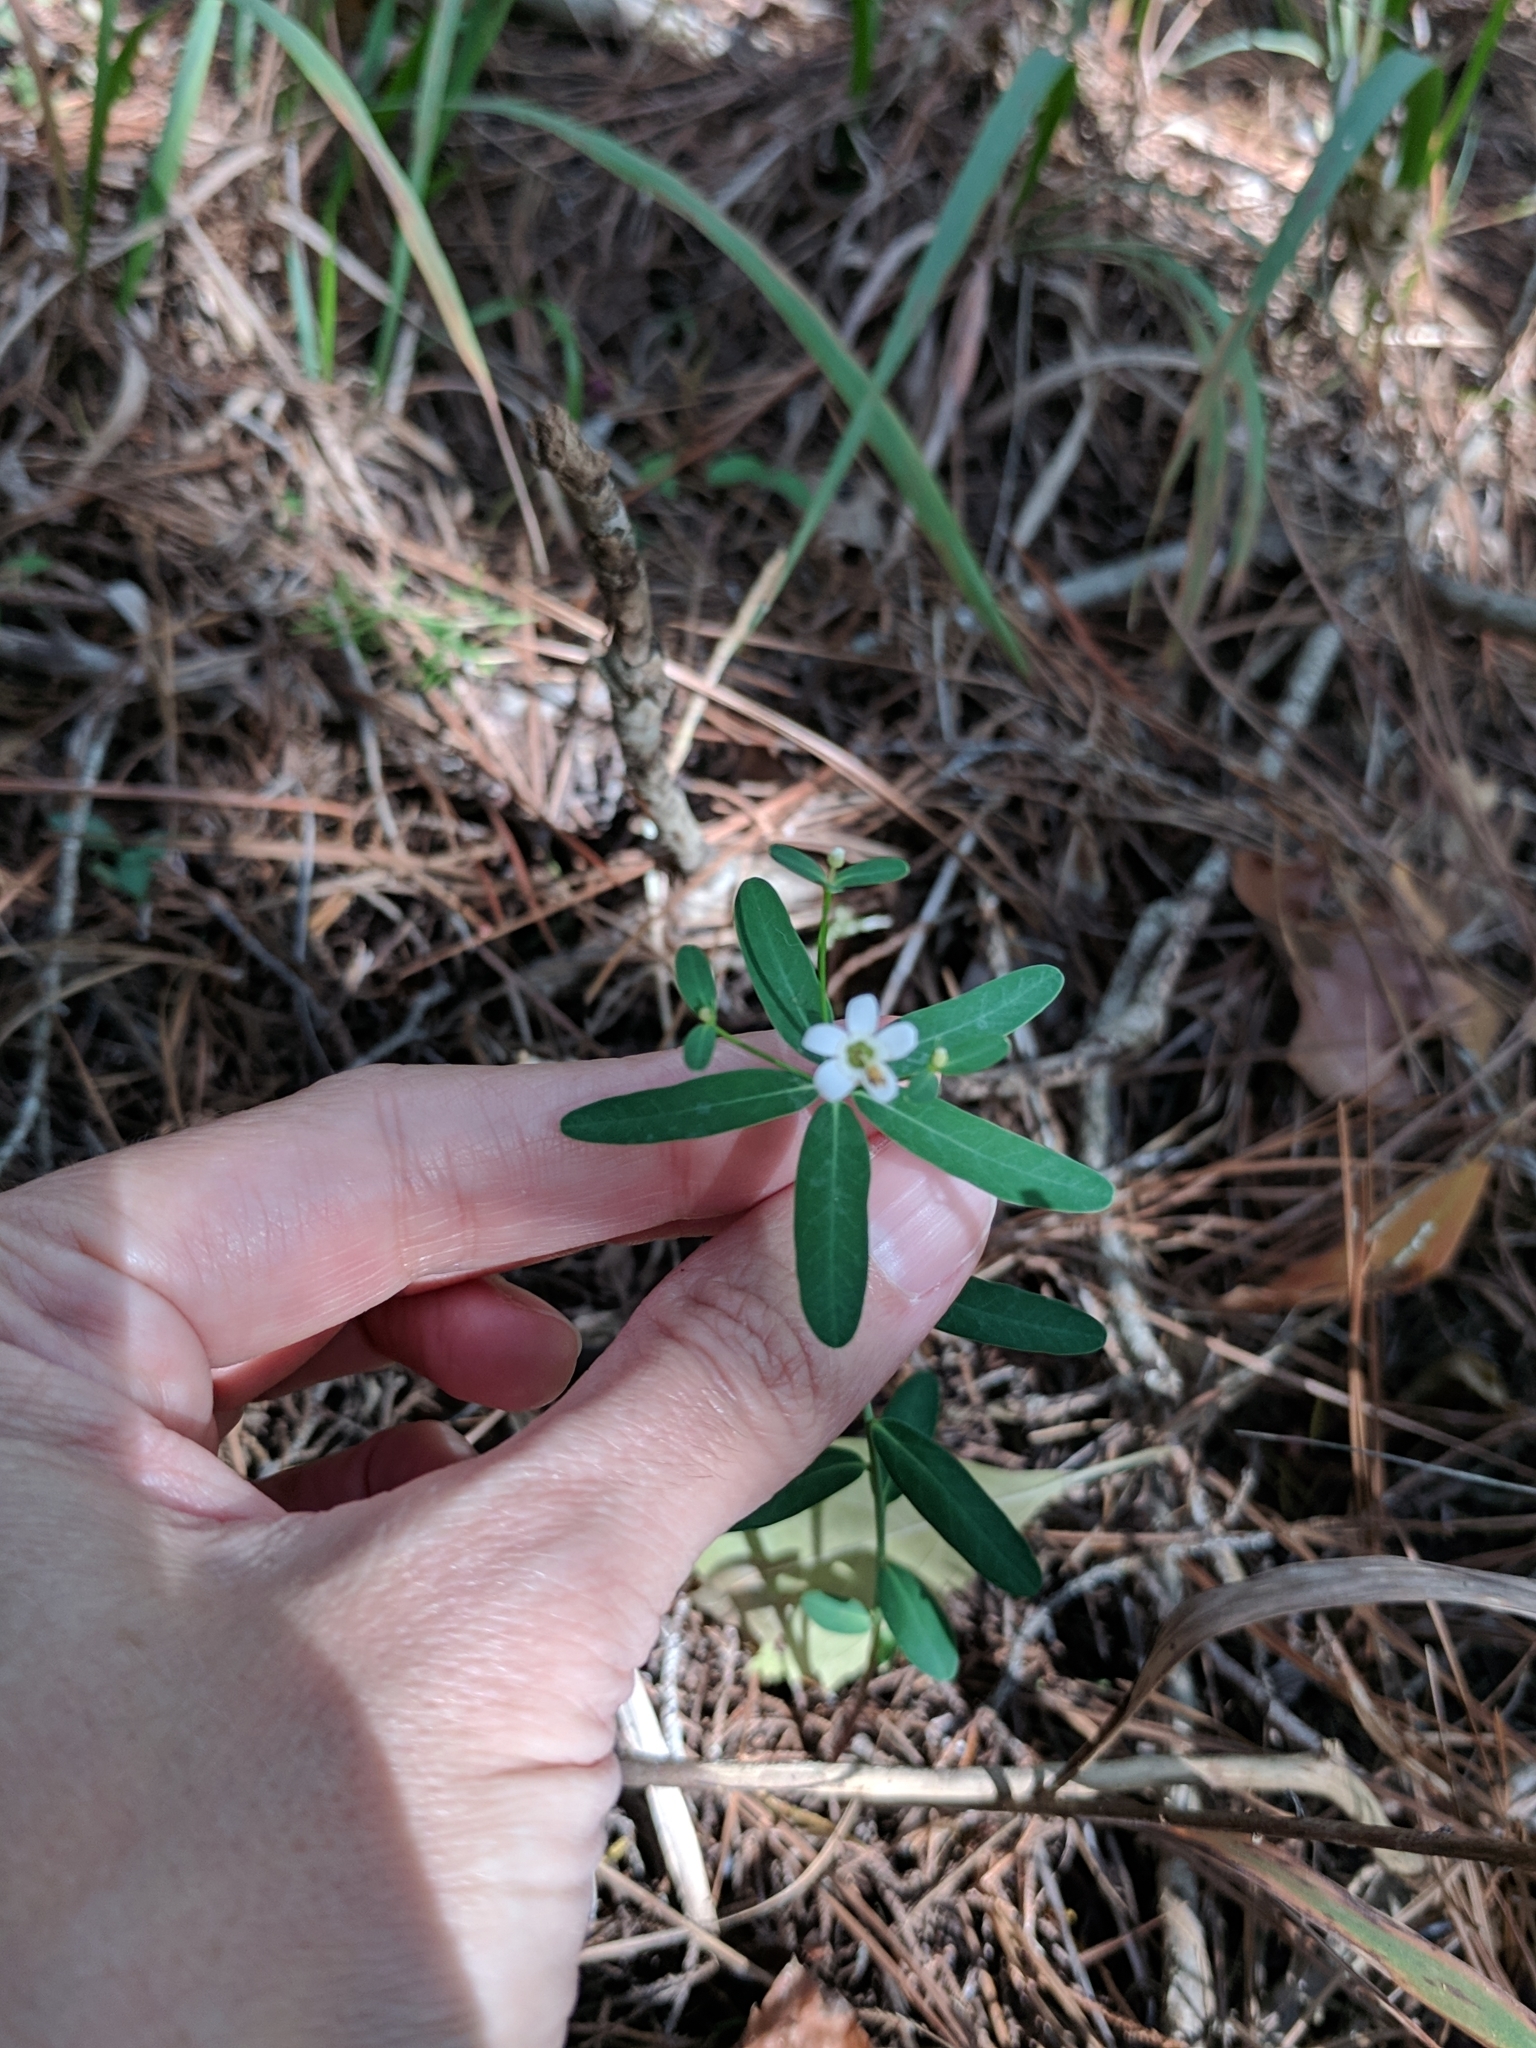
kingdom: Plantae
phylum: Tracheophyta
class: Magnoliopsida
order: Malpighiales
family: Euphorbiaceae
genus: Euphorbia
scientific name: Euphorbia corollata
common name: Flowering spurge
